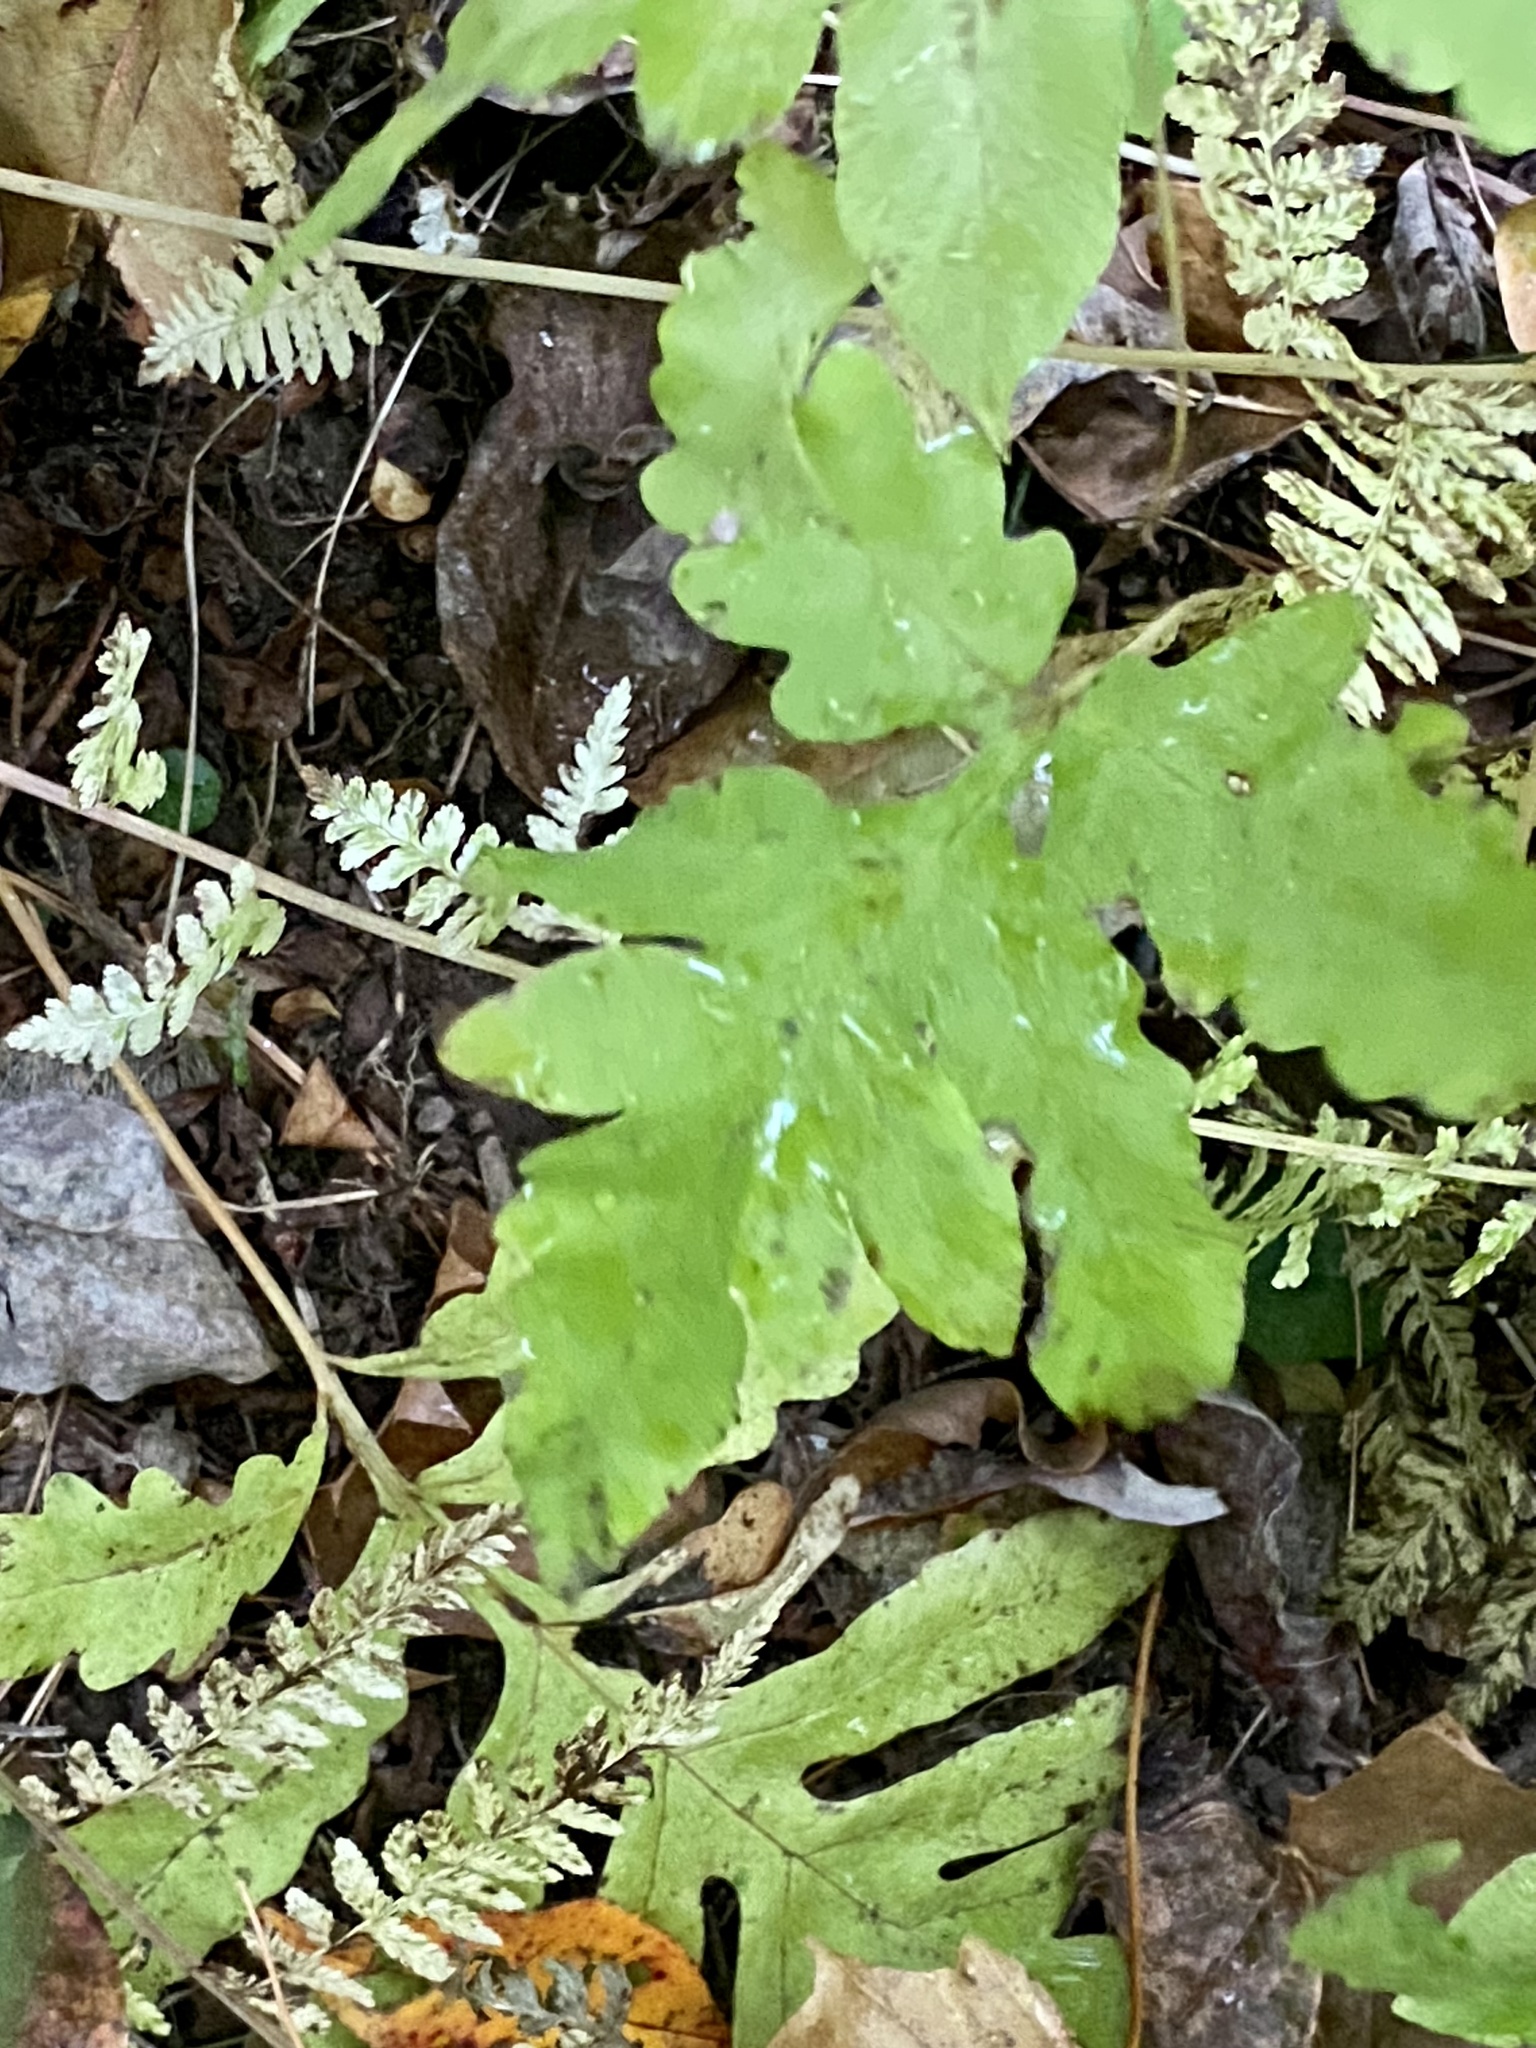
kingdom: Plantae
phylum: Tracheophyta
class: Polypodiopsida
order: Polypodiales
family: Onocleaceae
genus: Onoclea
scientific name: Onoclea sensibilis
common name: Sensitive fern
